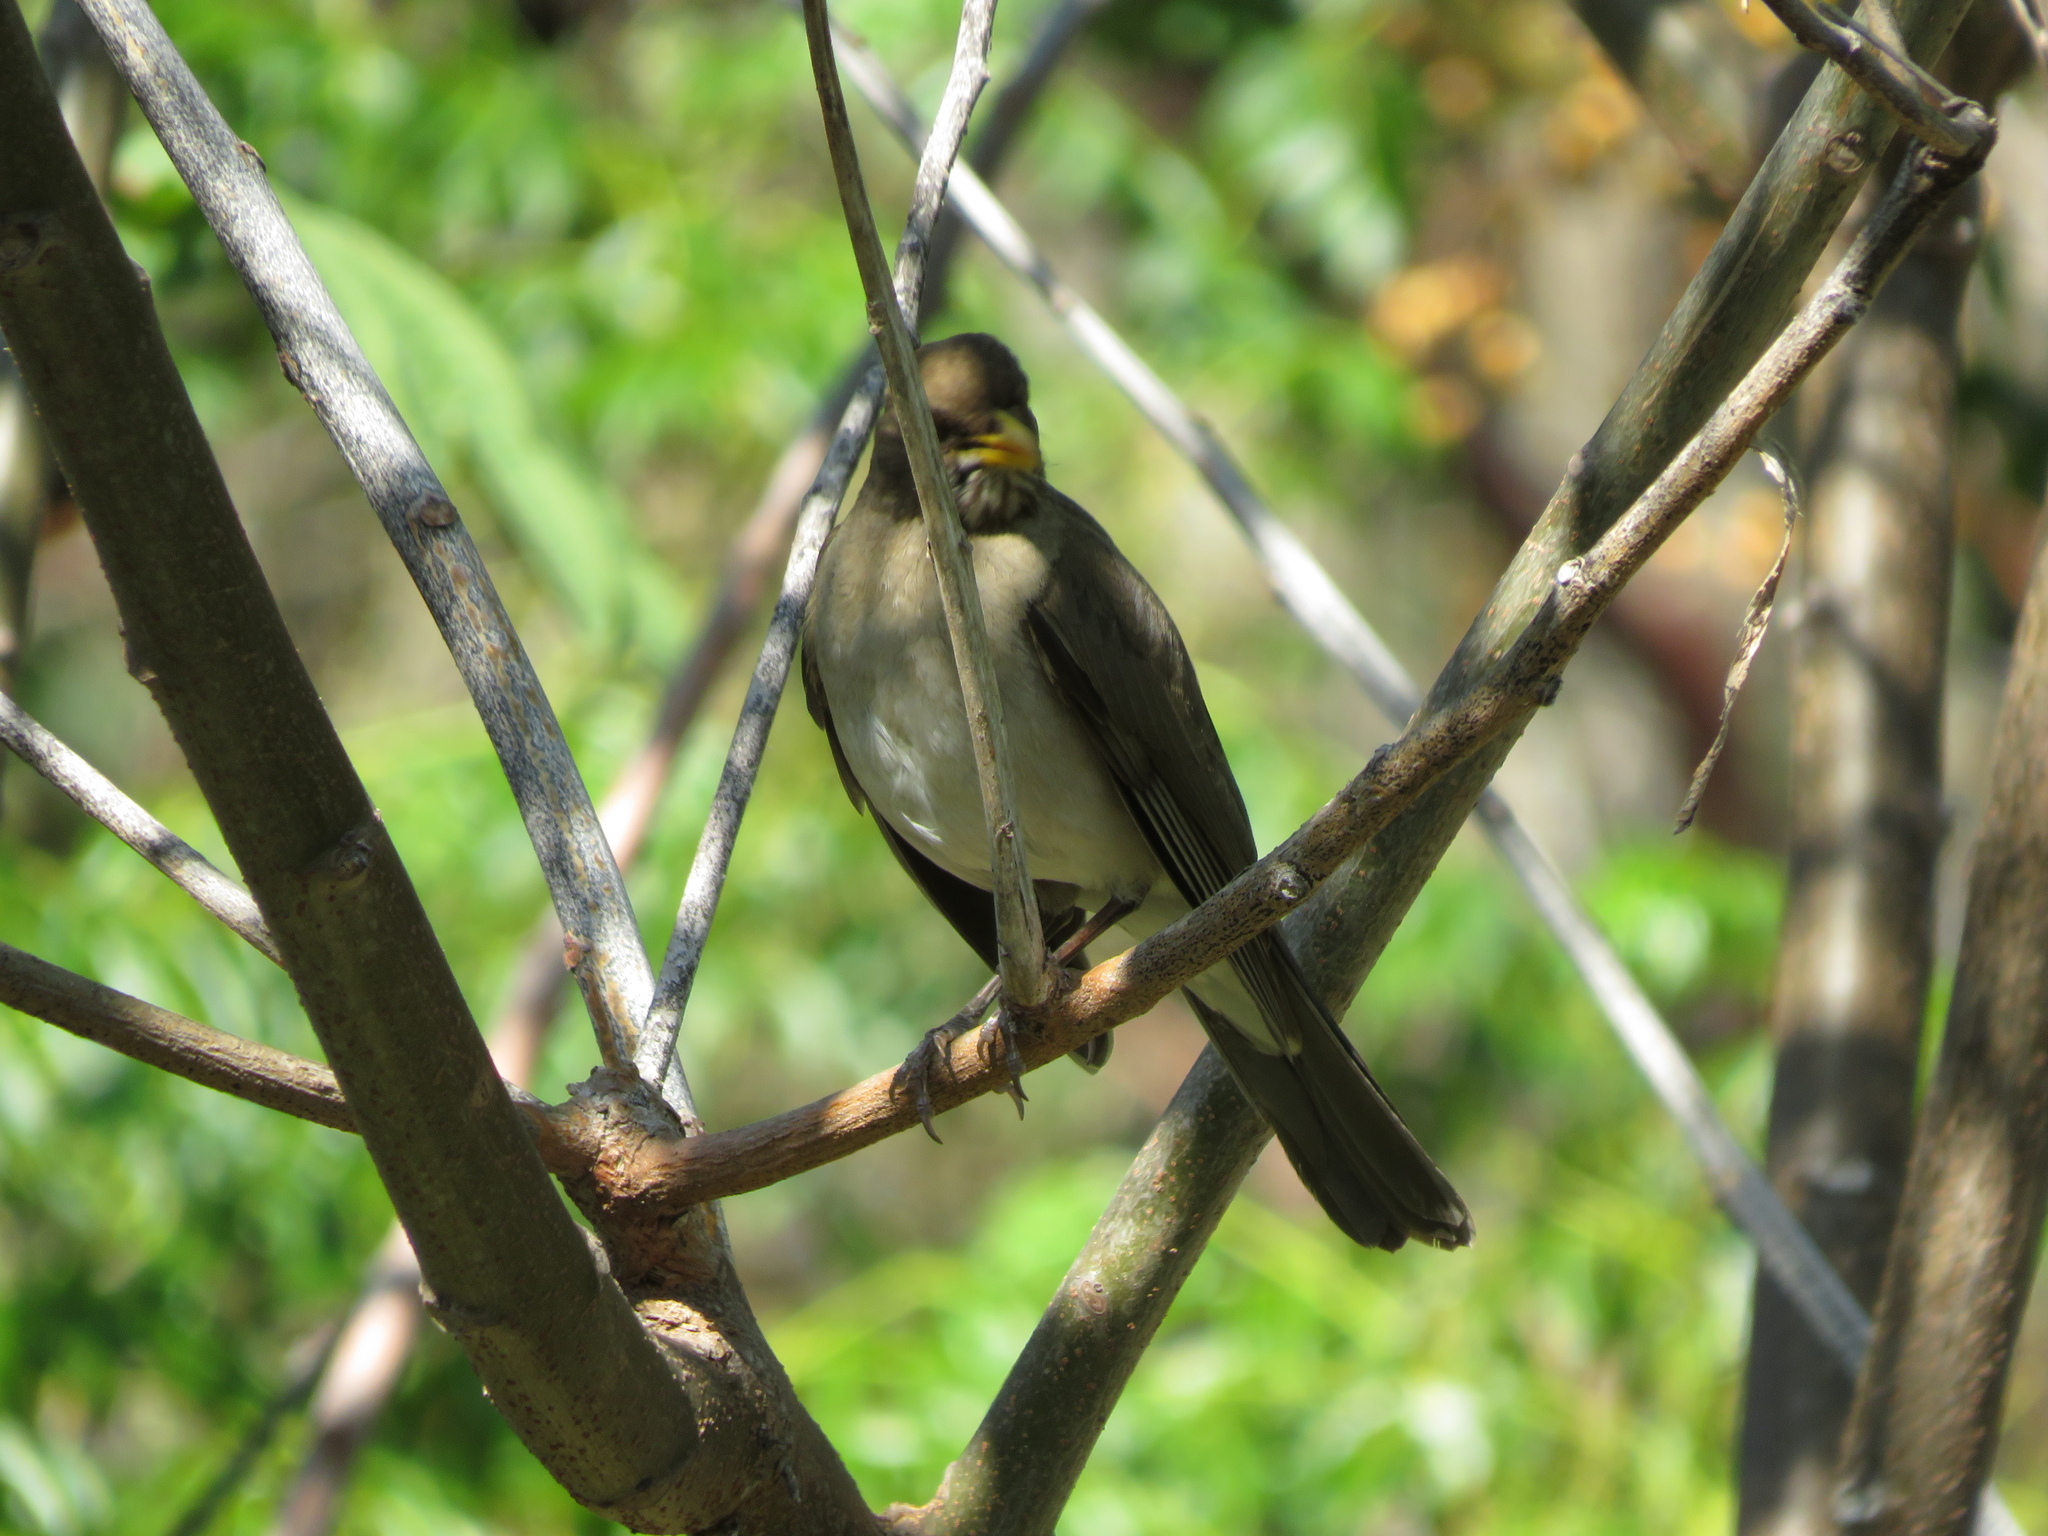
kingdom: Animalia
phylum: Chordata
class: Aves
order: Passeriformes
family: Turdidae
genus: Turdus
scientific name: Turdus amaurochalinus
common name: Creamy-bellied thrush
